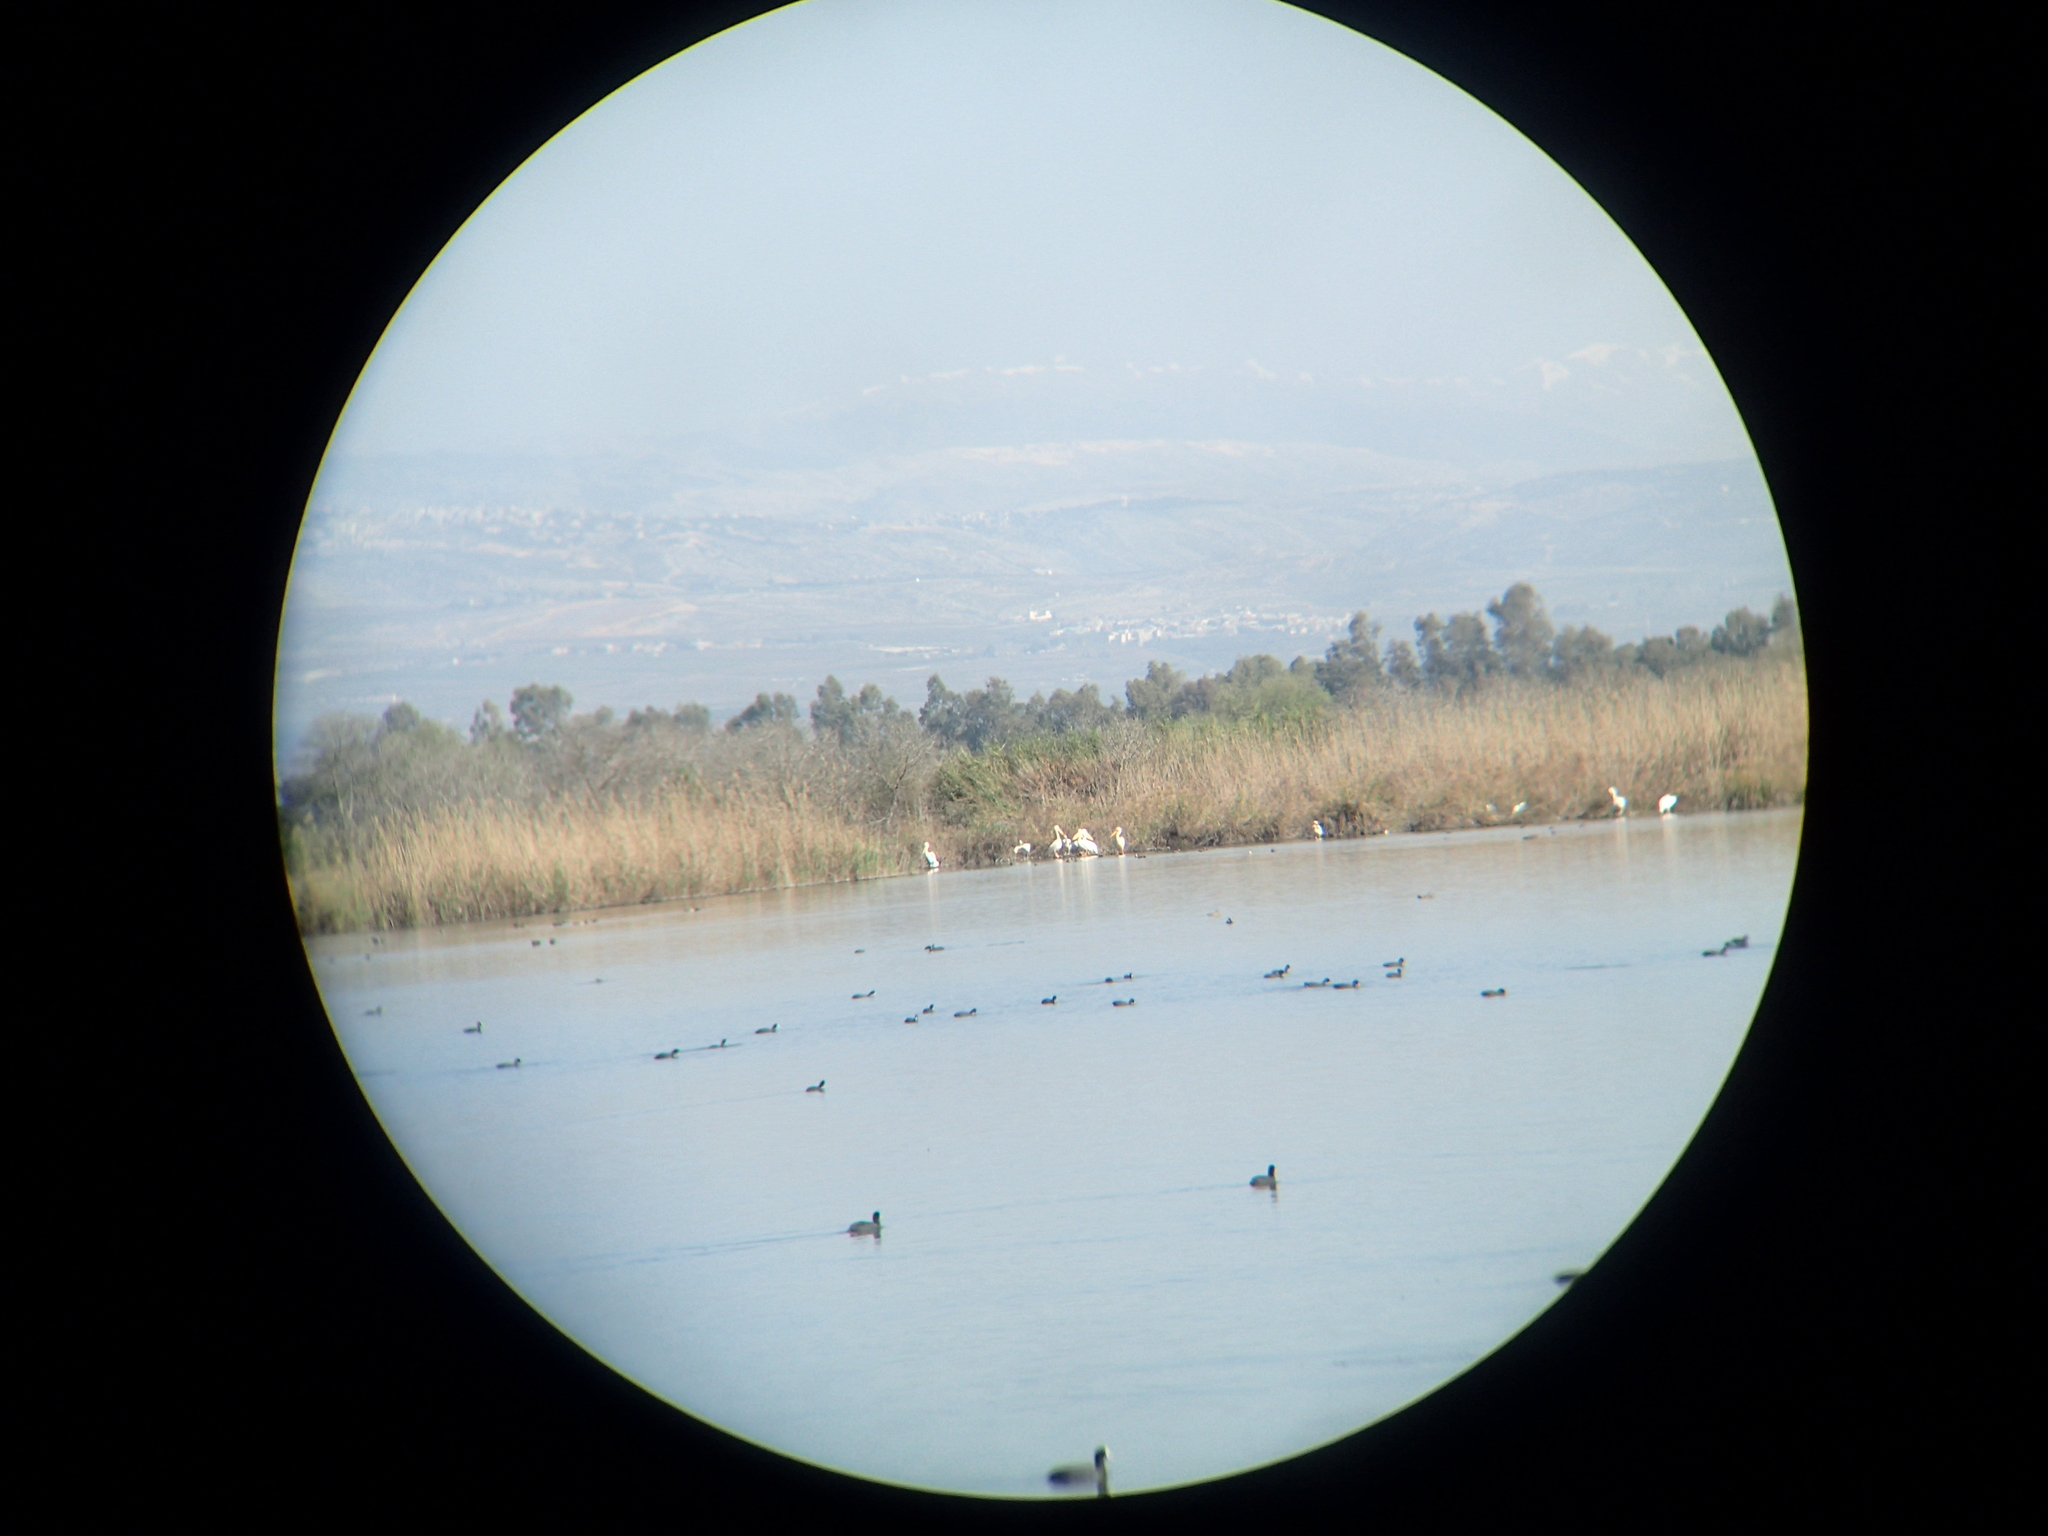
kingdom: Animalia
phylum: Chordata
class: Aves
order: Pelecaniformes
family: Pelecanidae
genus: Pelecanus
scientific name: Pelecanus onocrotalus
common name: Great white pelican
